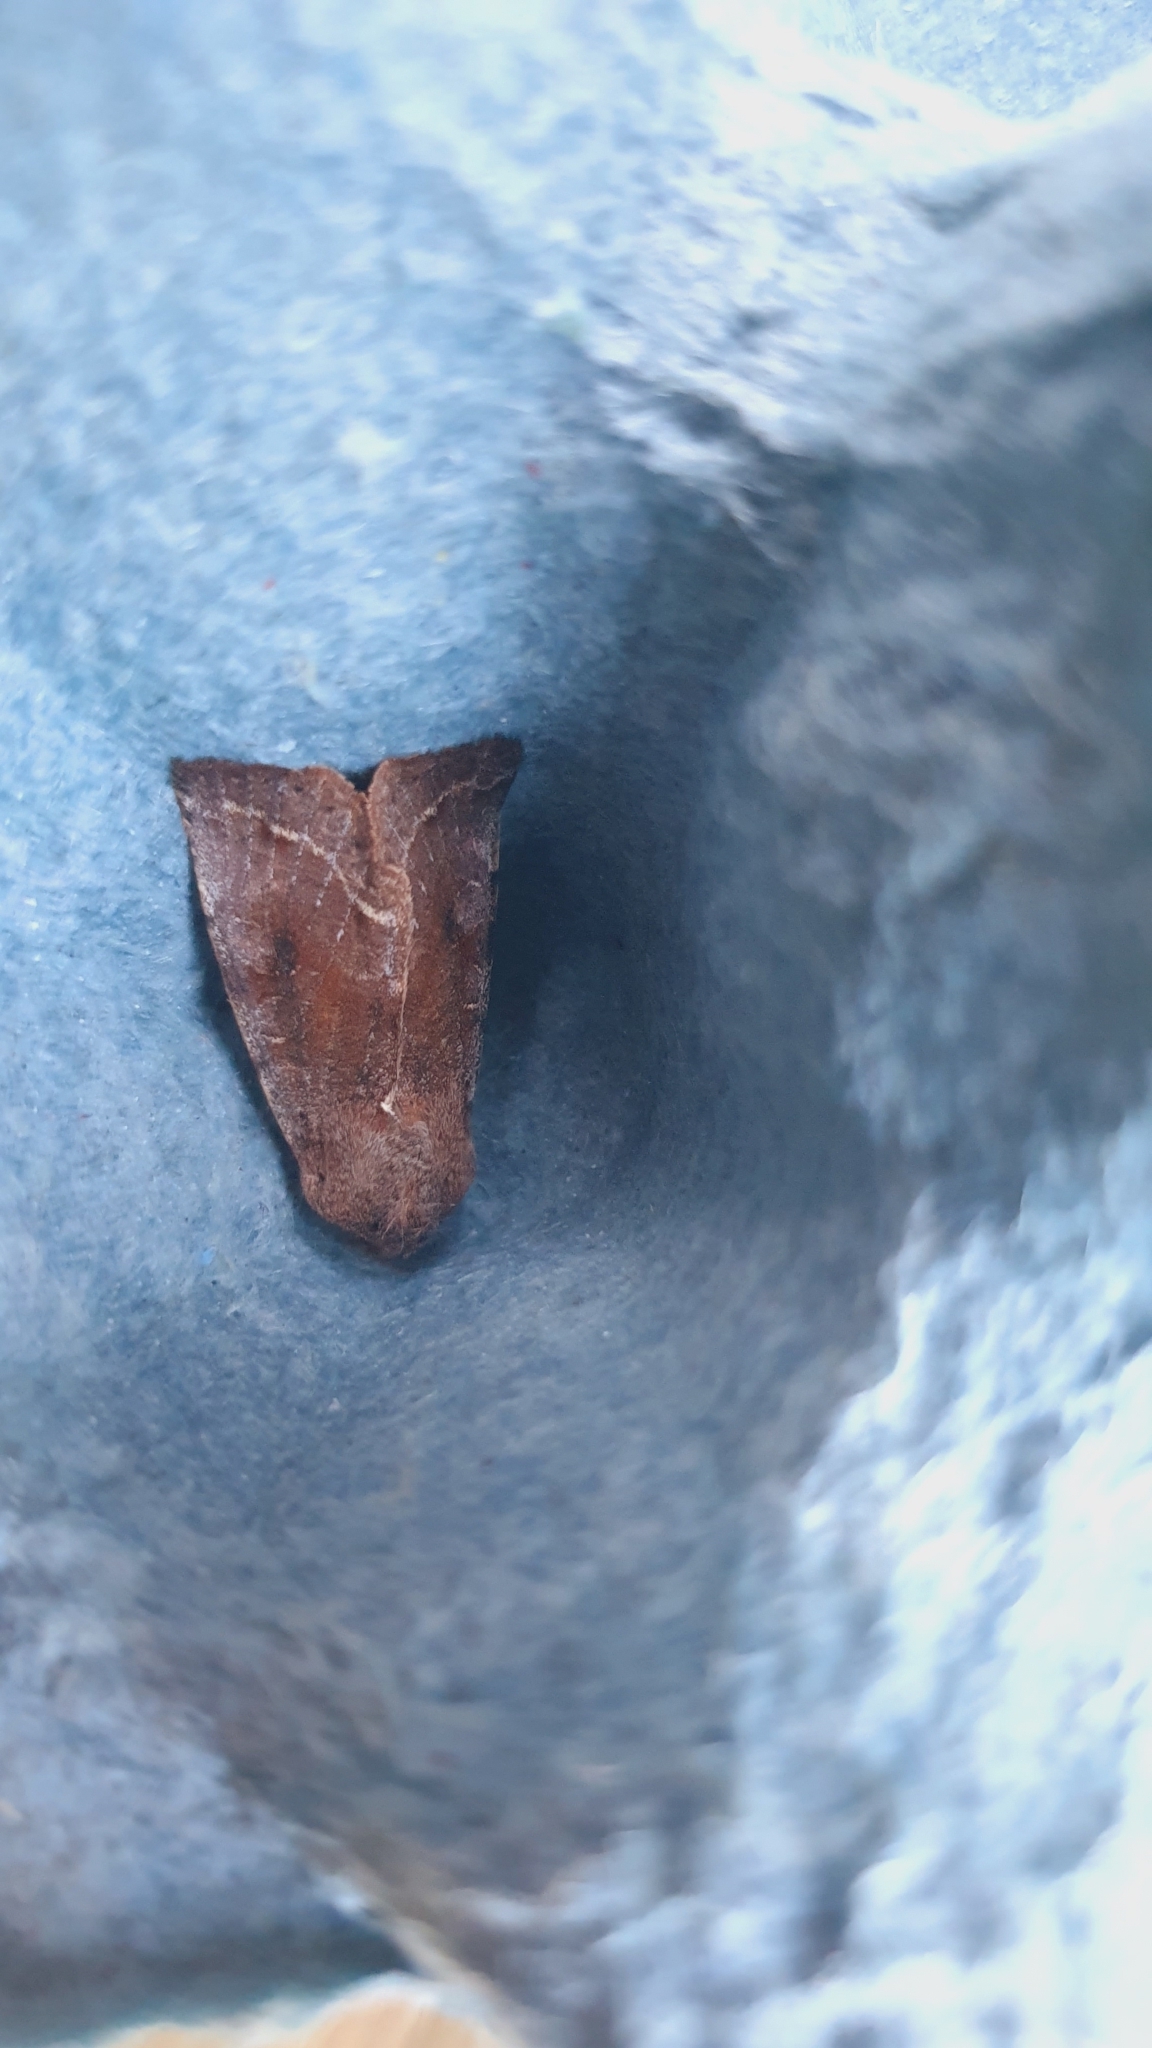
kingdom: Animalia
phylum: Arthropoda
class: Insecta
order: Lepidoptera
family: Noctuidae
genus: Orthosia
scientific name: Orthosia incerta
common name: Clouded drab
